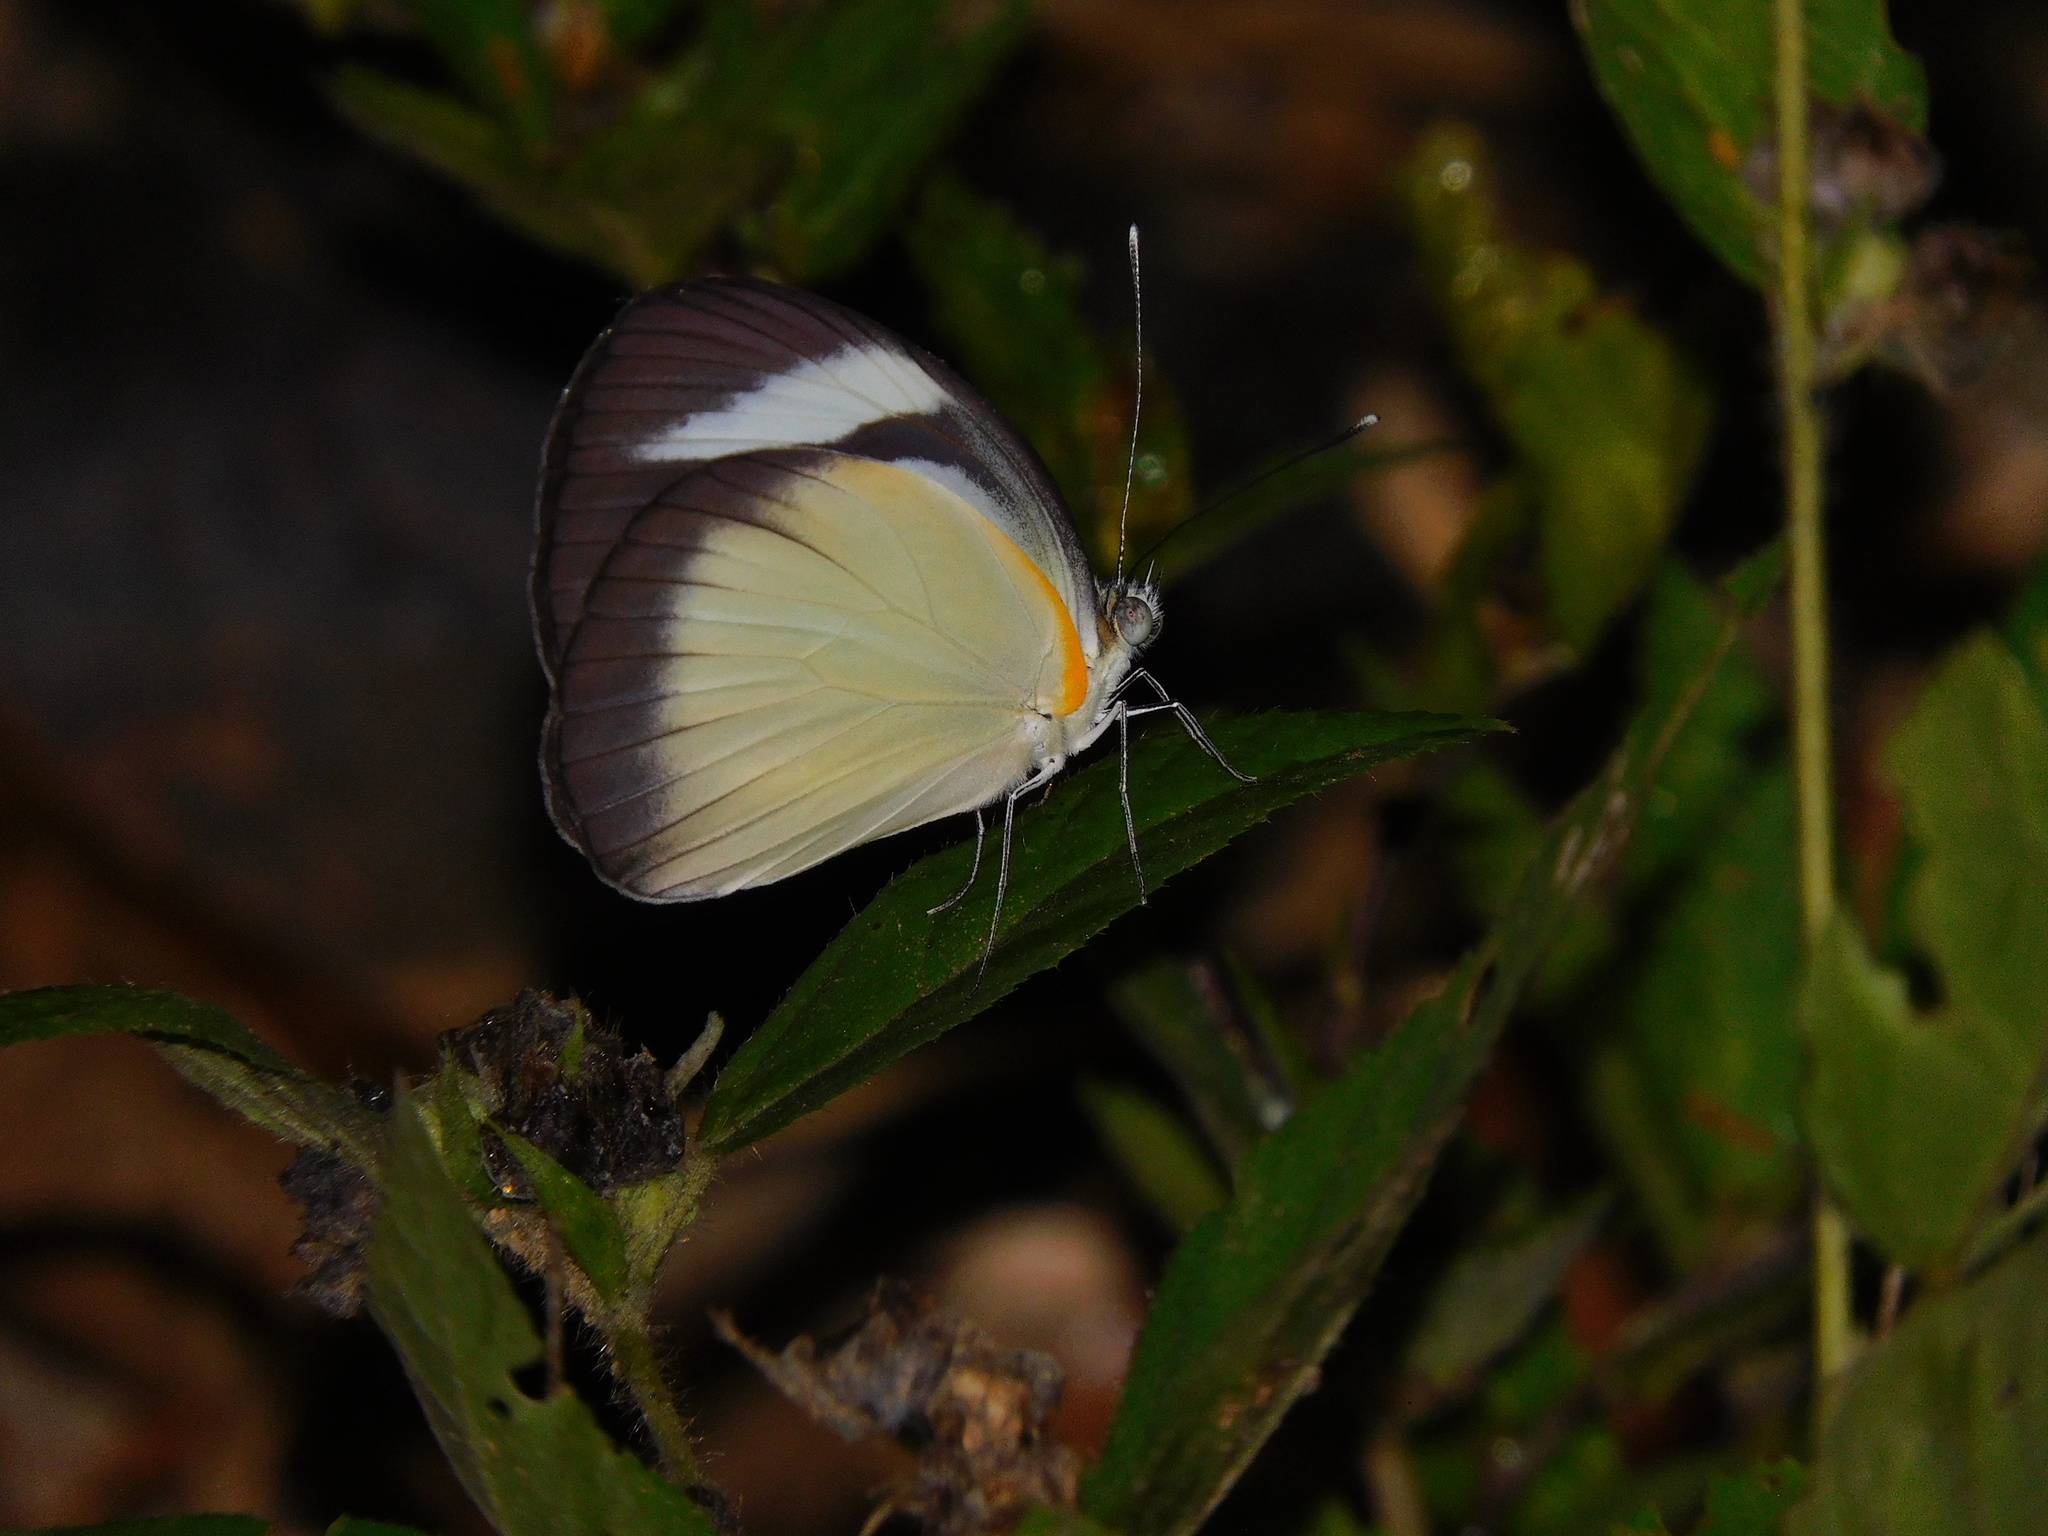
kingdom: Animalia
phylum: Arthropoda
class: Insecta
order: Lepidoptera
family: Pieridae
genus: Itaballia
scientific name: Itaballia demophile
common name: Cross-barred white
